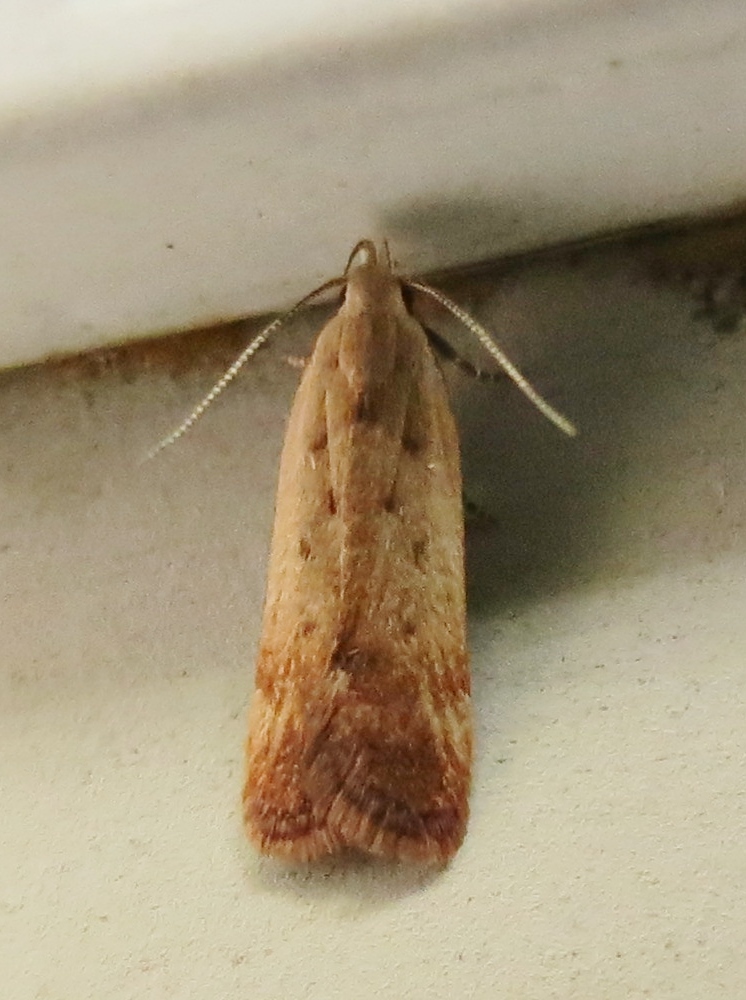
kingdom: Animalia
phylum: Arthropoda
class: Insecta
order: Lepidoptera
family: Gelechiidae
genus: Anacampsis
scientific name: Anacampsis fullonella
